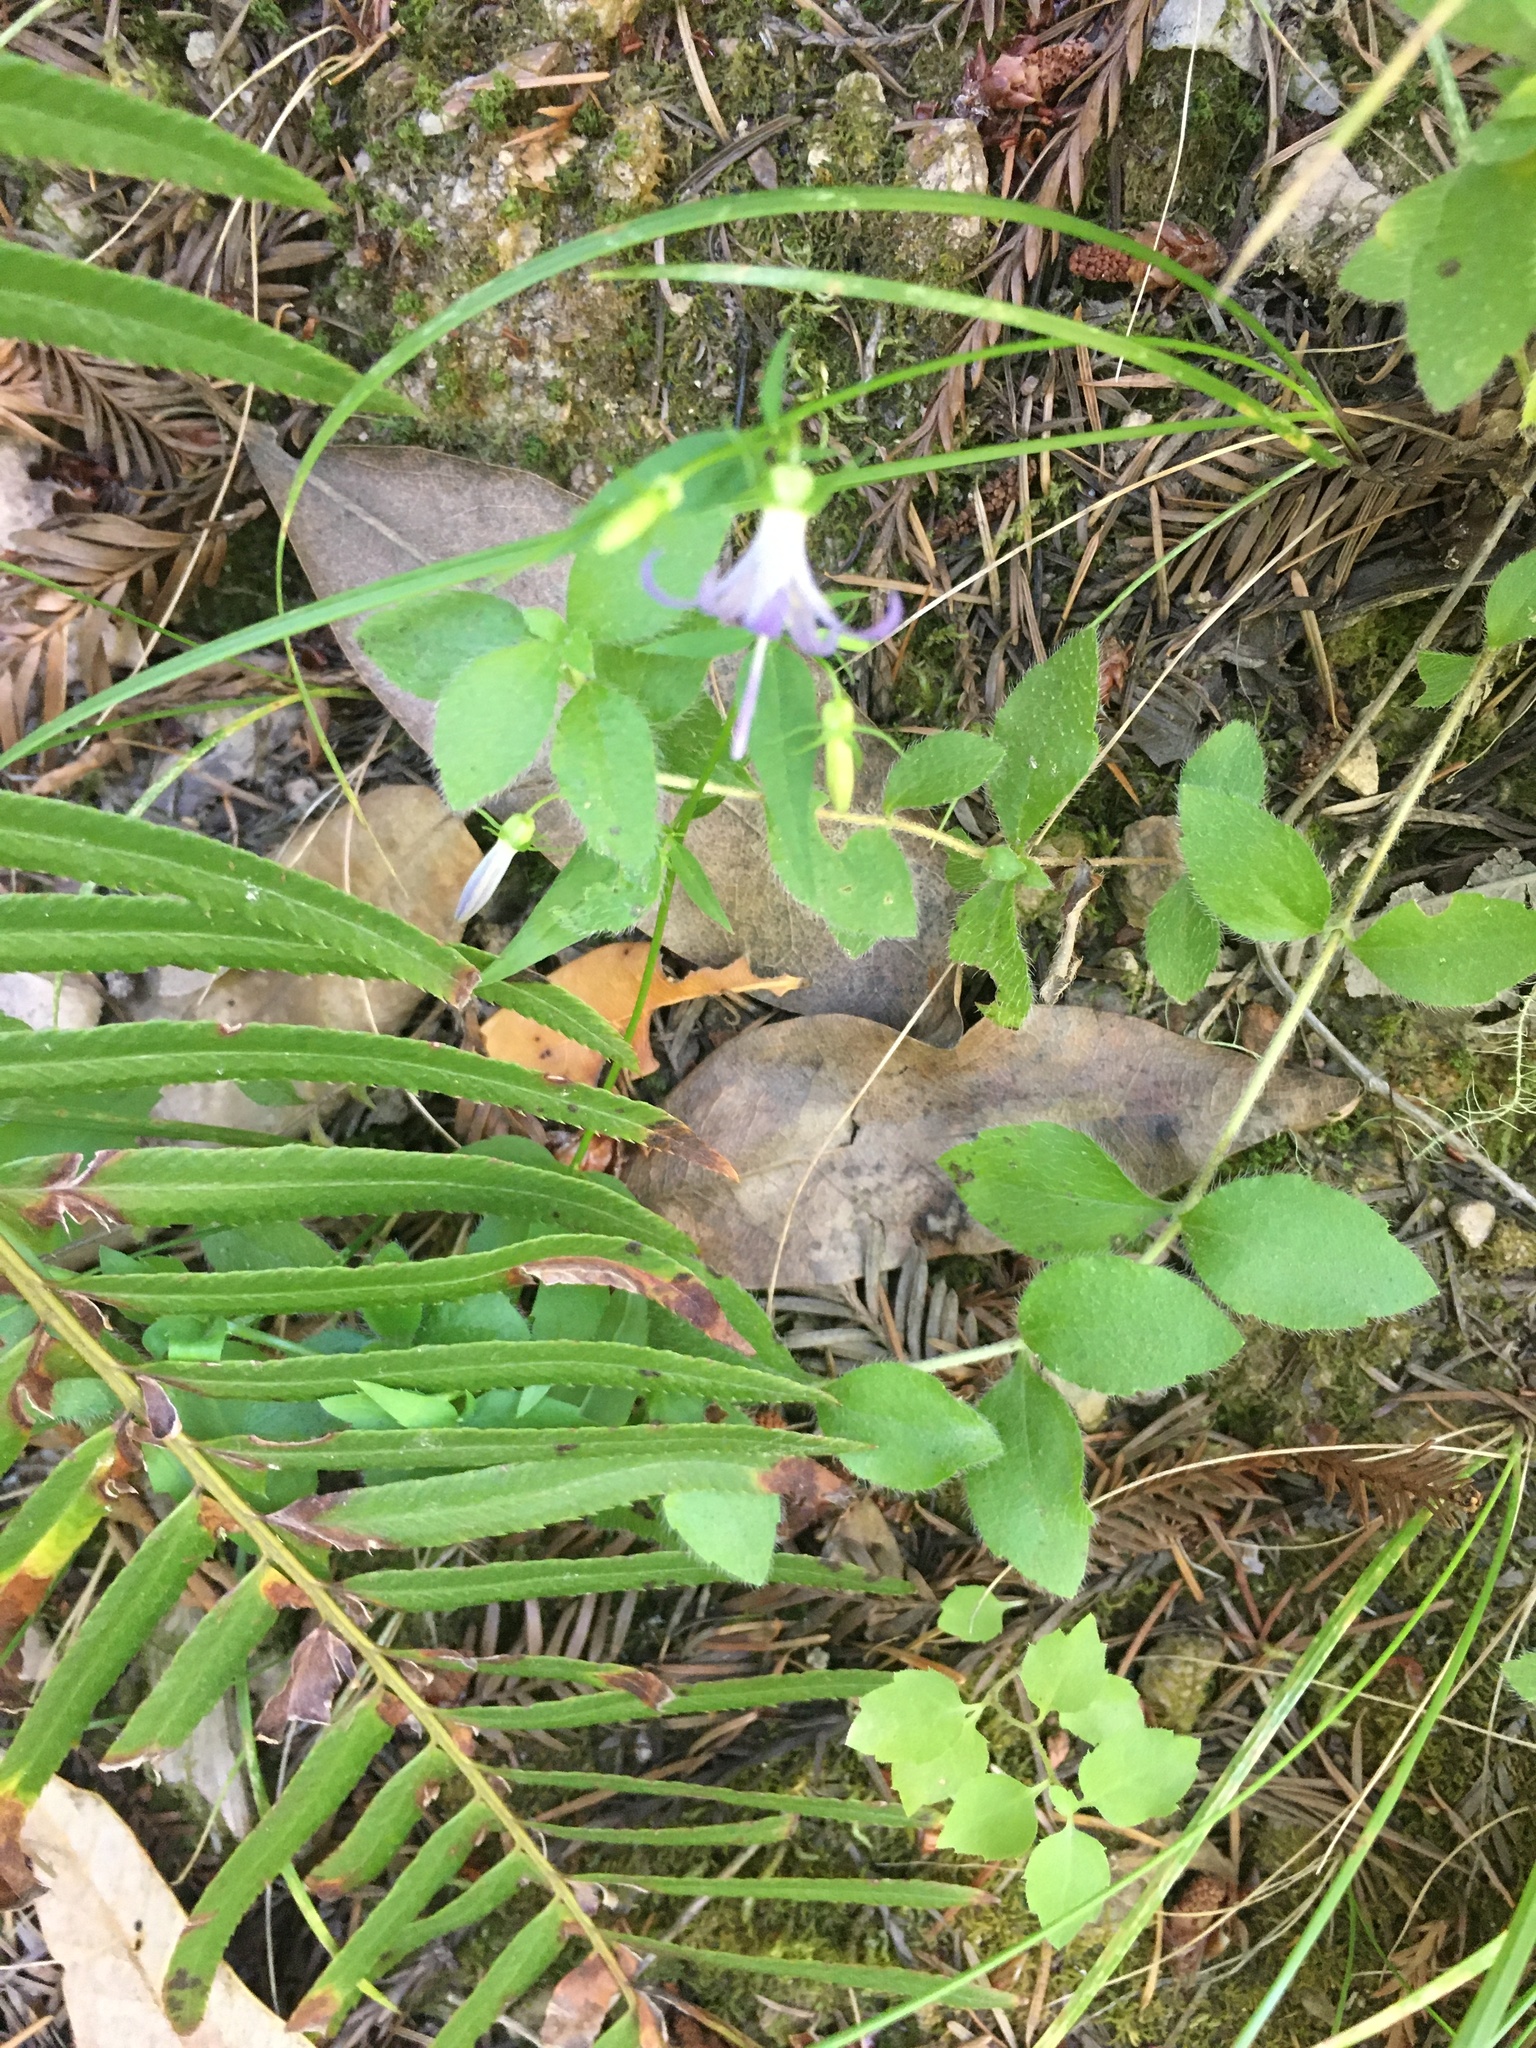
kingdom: Plantae
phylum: Tracheophyta
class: Magnoliopsida
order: Asterales
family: Campanulaceae
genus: Smithiastrum
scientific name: Smithiastrum prenanthoides
